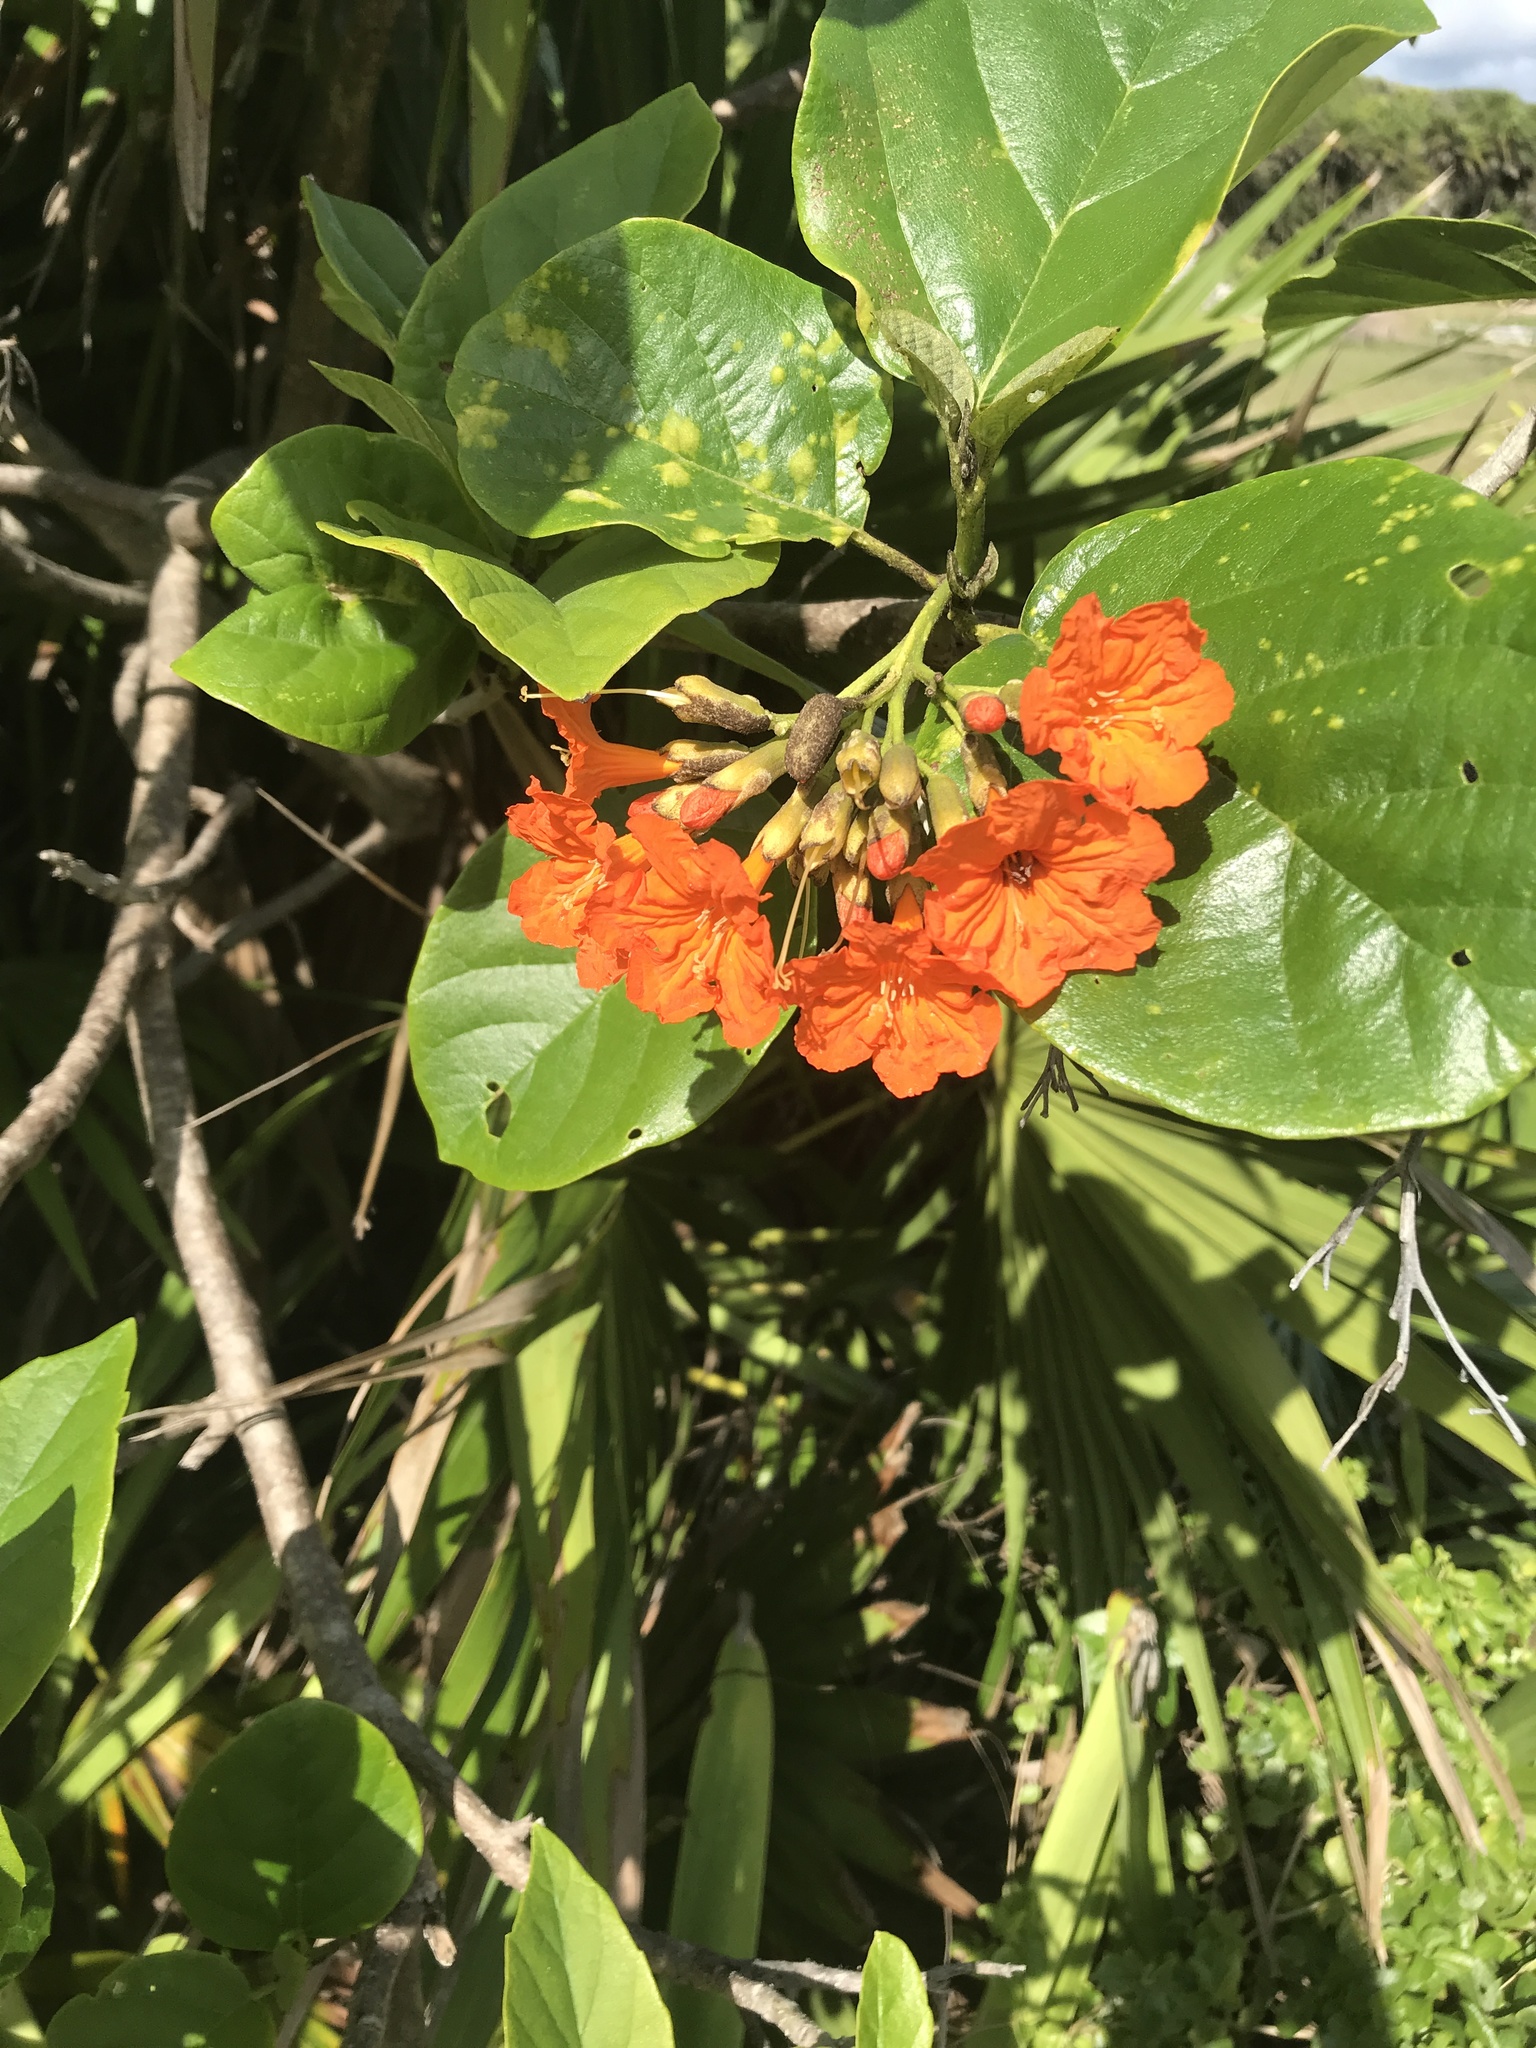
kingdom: Plantae
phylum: Tracheophyta
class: Magnoliopsida
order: Boraginales
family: Cordiaceae
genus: Cordia
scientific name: Cordia sebestena
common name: Largeleaf geigertree
